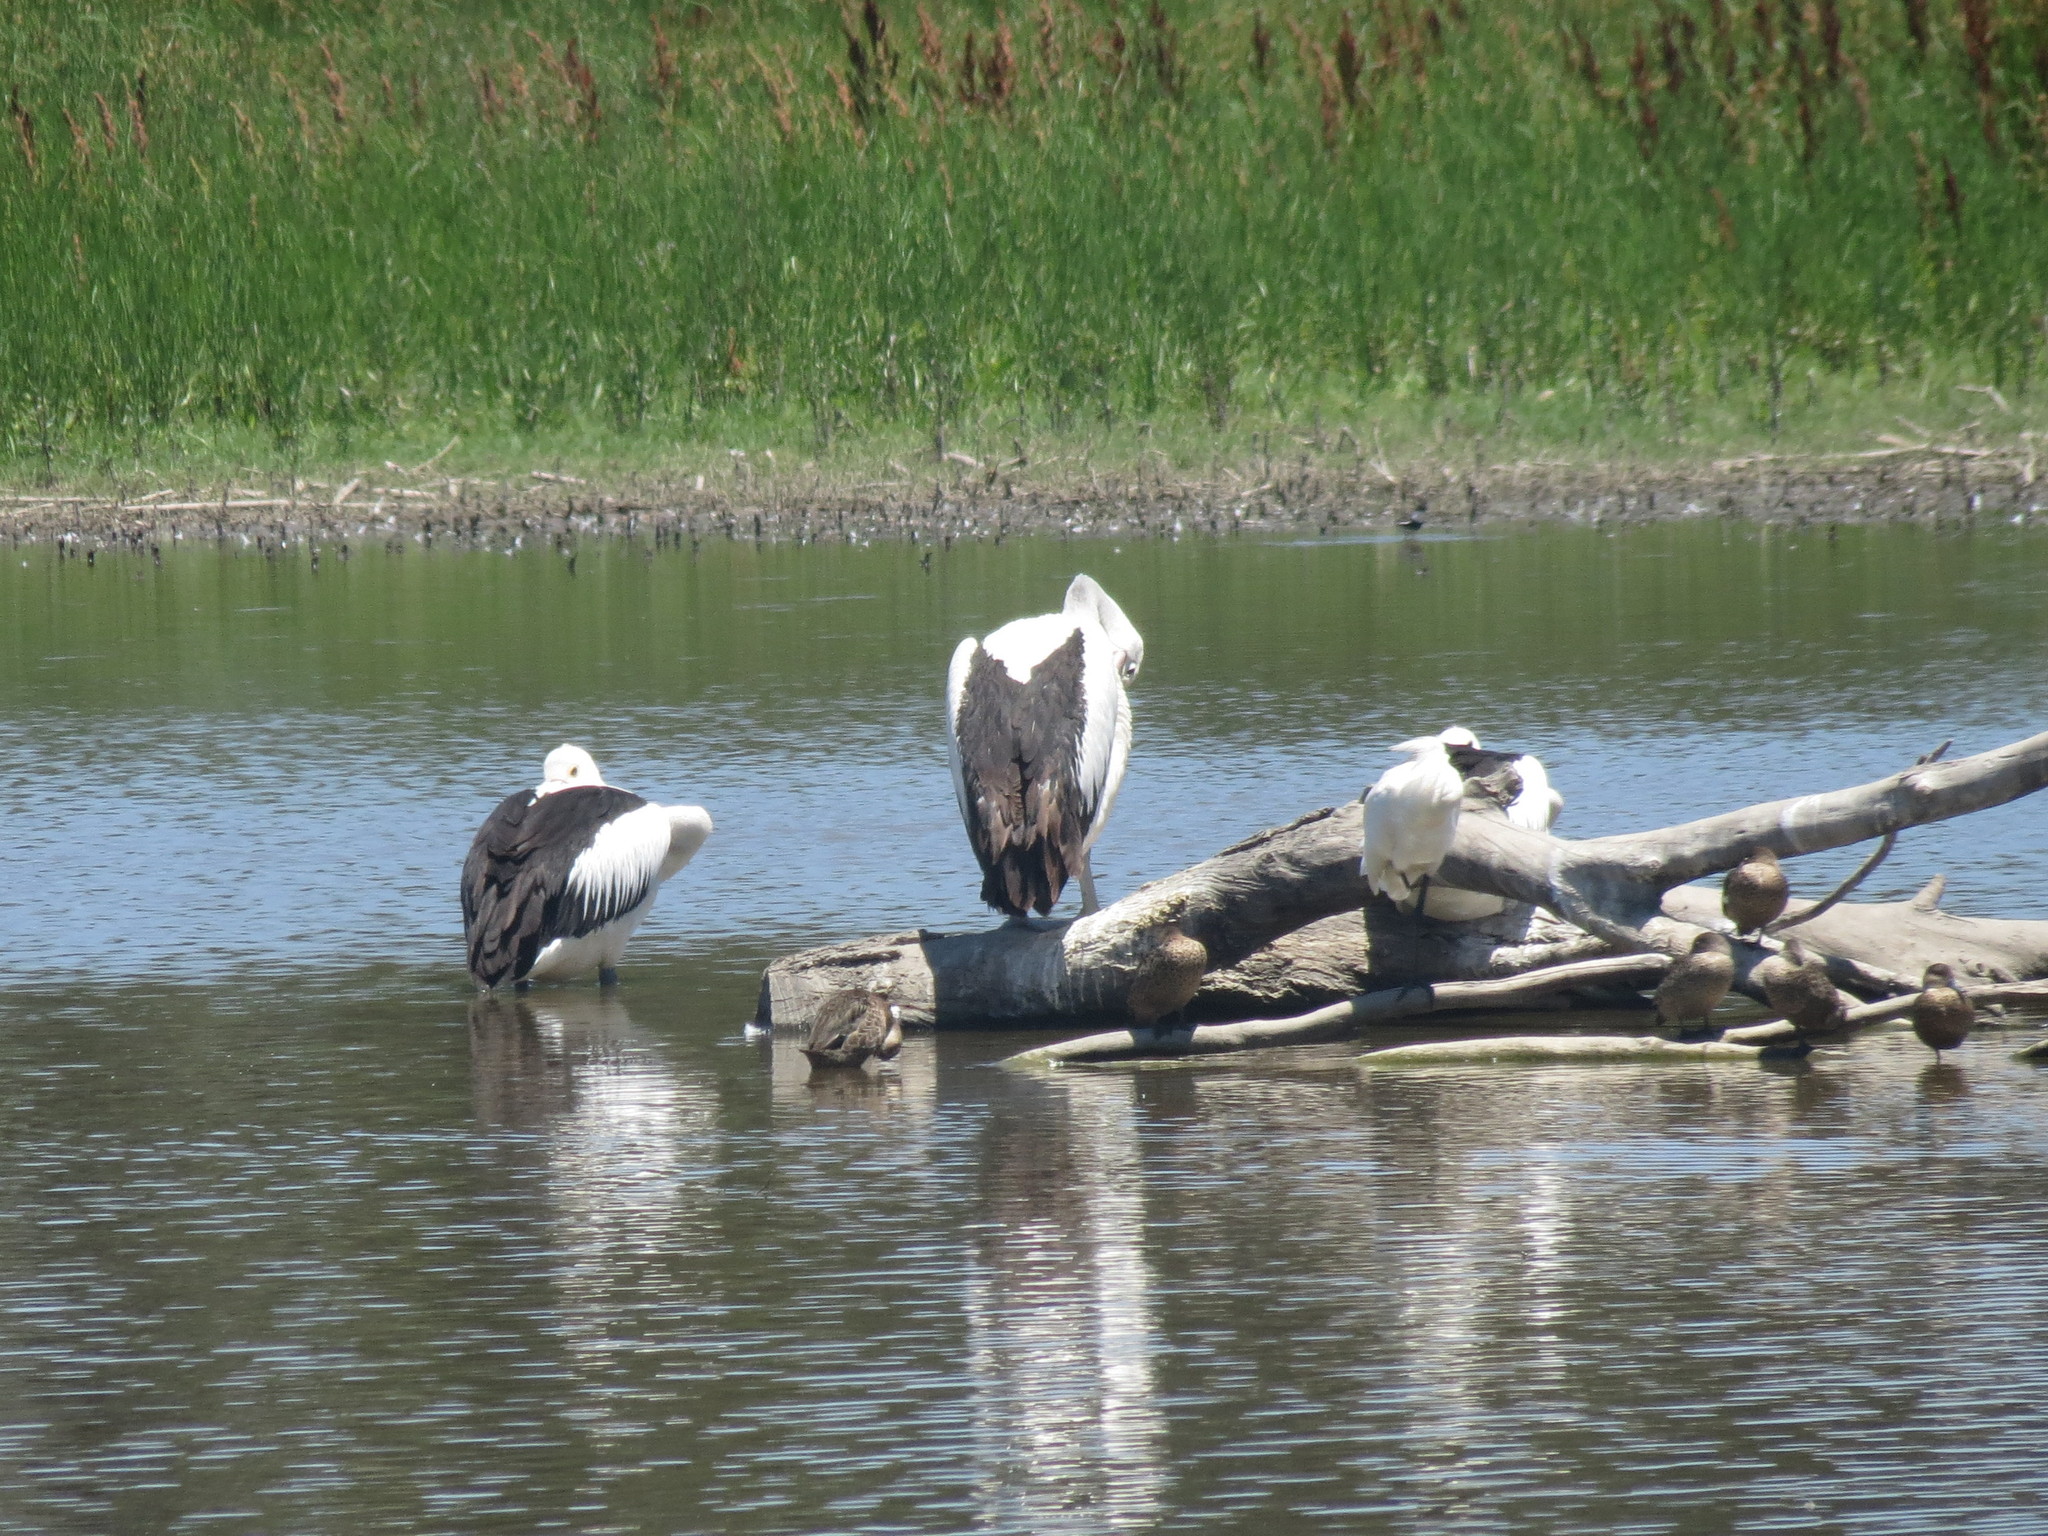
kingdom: Animalia
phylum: Chordata
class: Aves
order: Pelecaniformes
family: Pelecanidae
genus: Pelecanus
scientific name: Pelecanus conspicillatus
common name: Australian pelican
